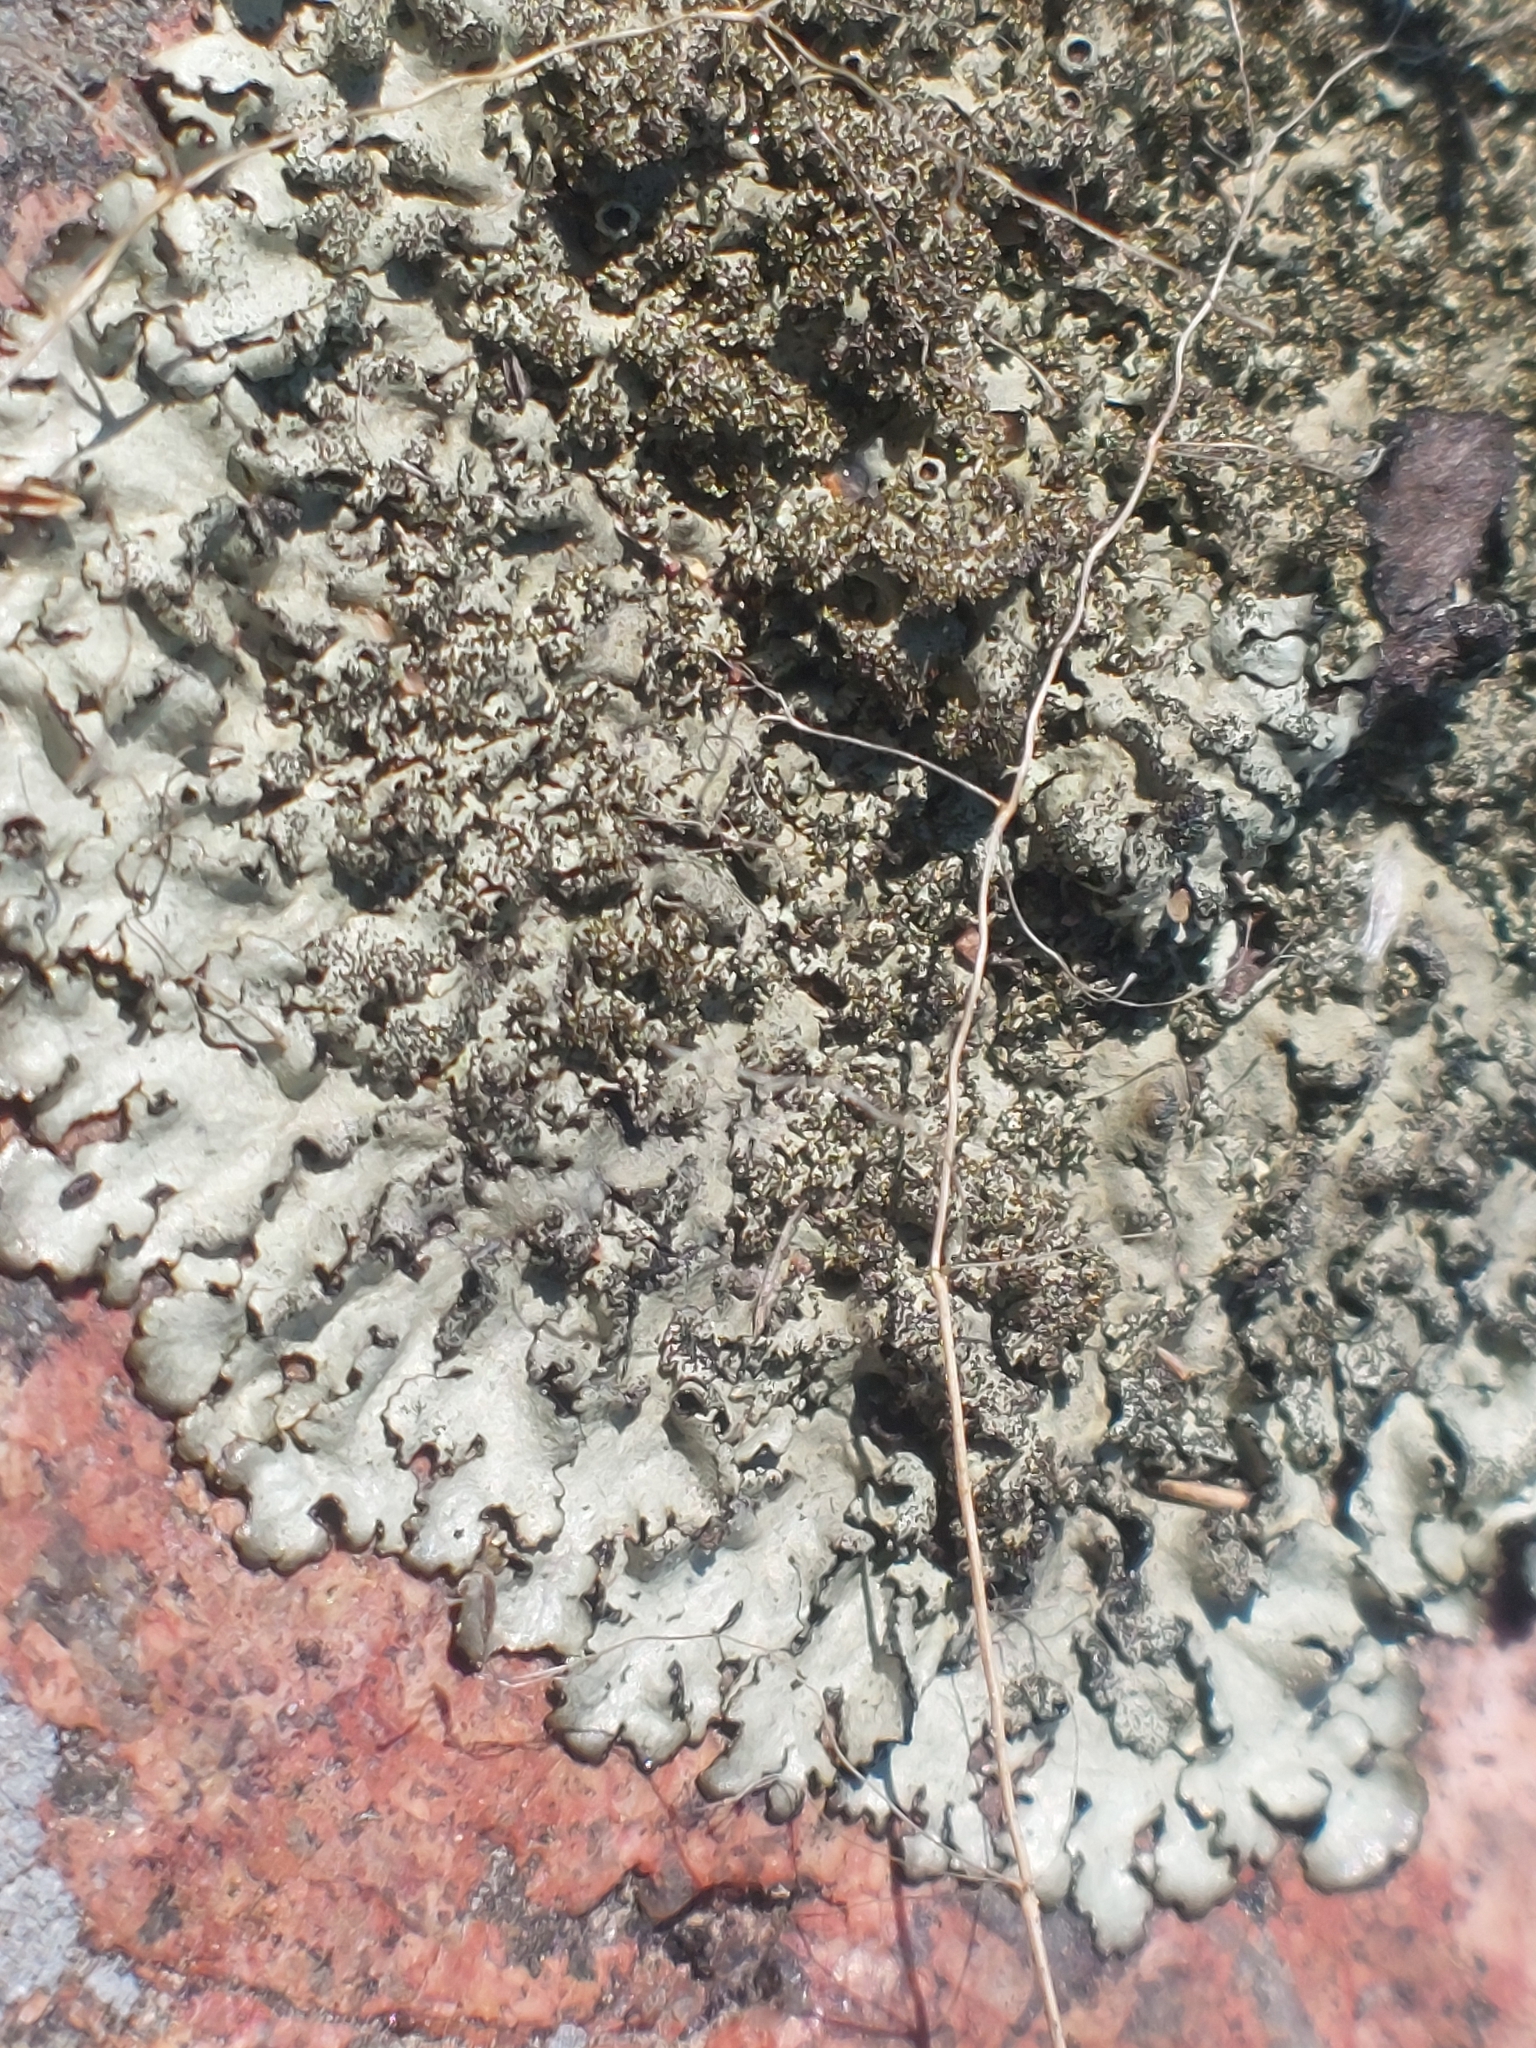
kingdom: Fungi
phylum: Ascomycota
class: Lecanoromycetes
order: Lecanorales
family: Parmeliaceae
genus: Xanthoparmelia
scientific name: Xanthoparmelia conspersa
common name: Peppered rock shield
